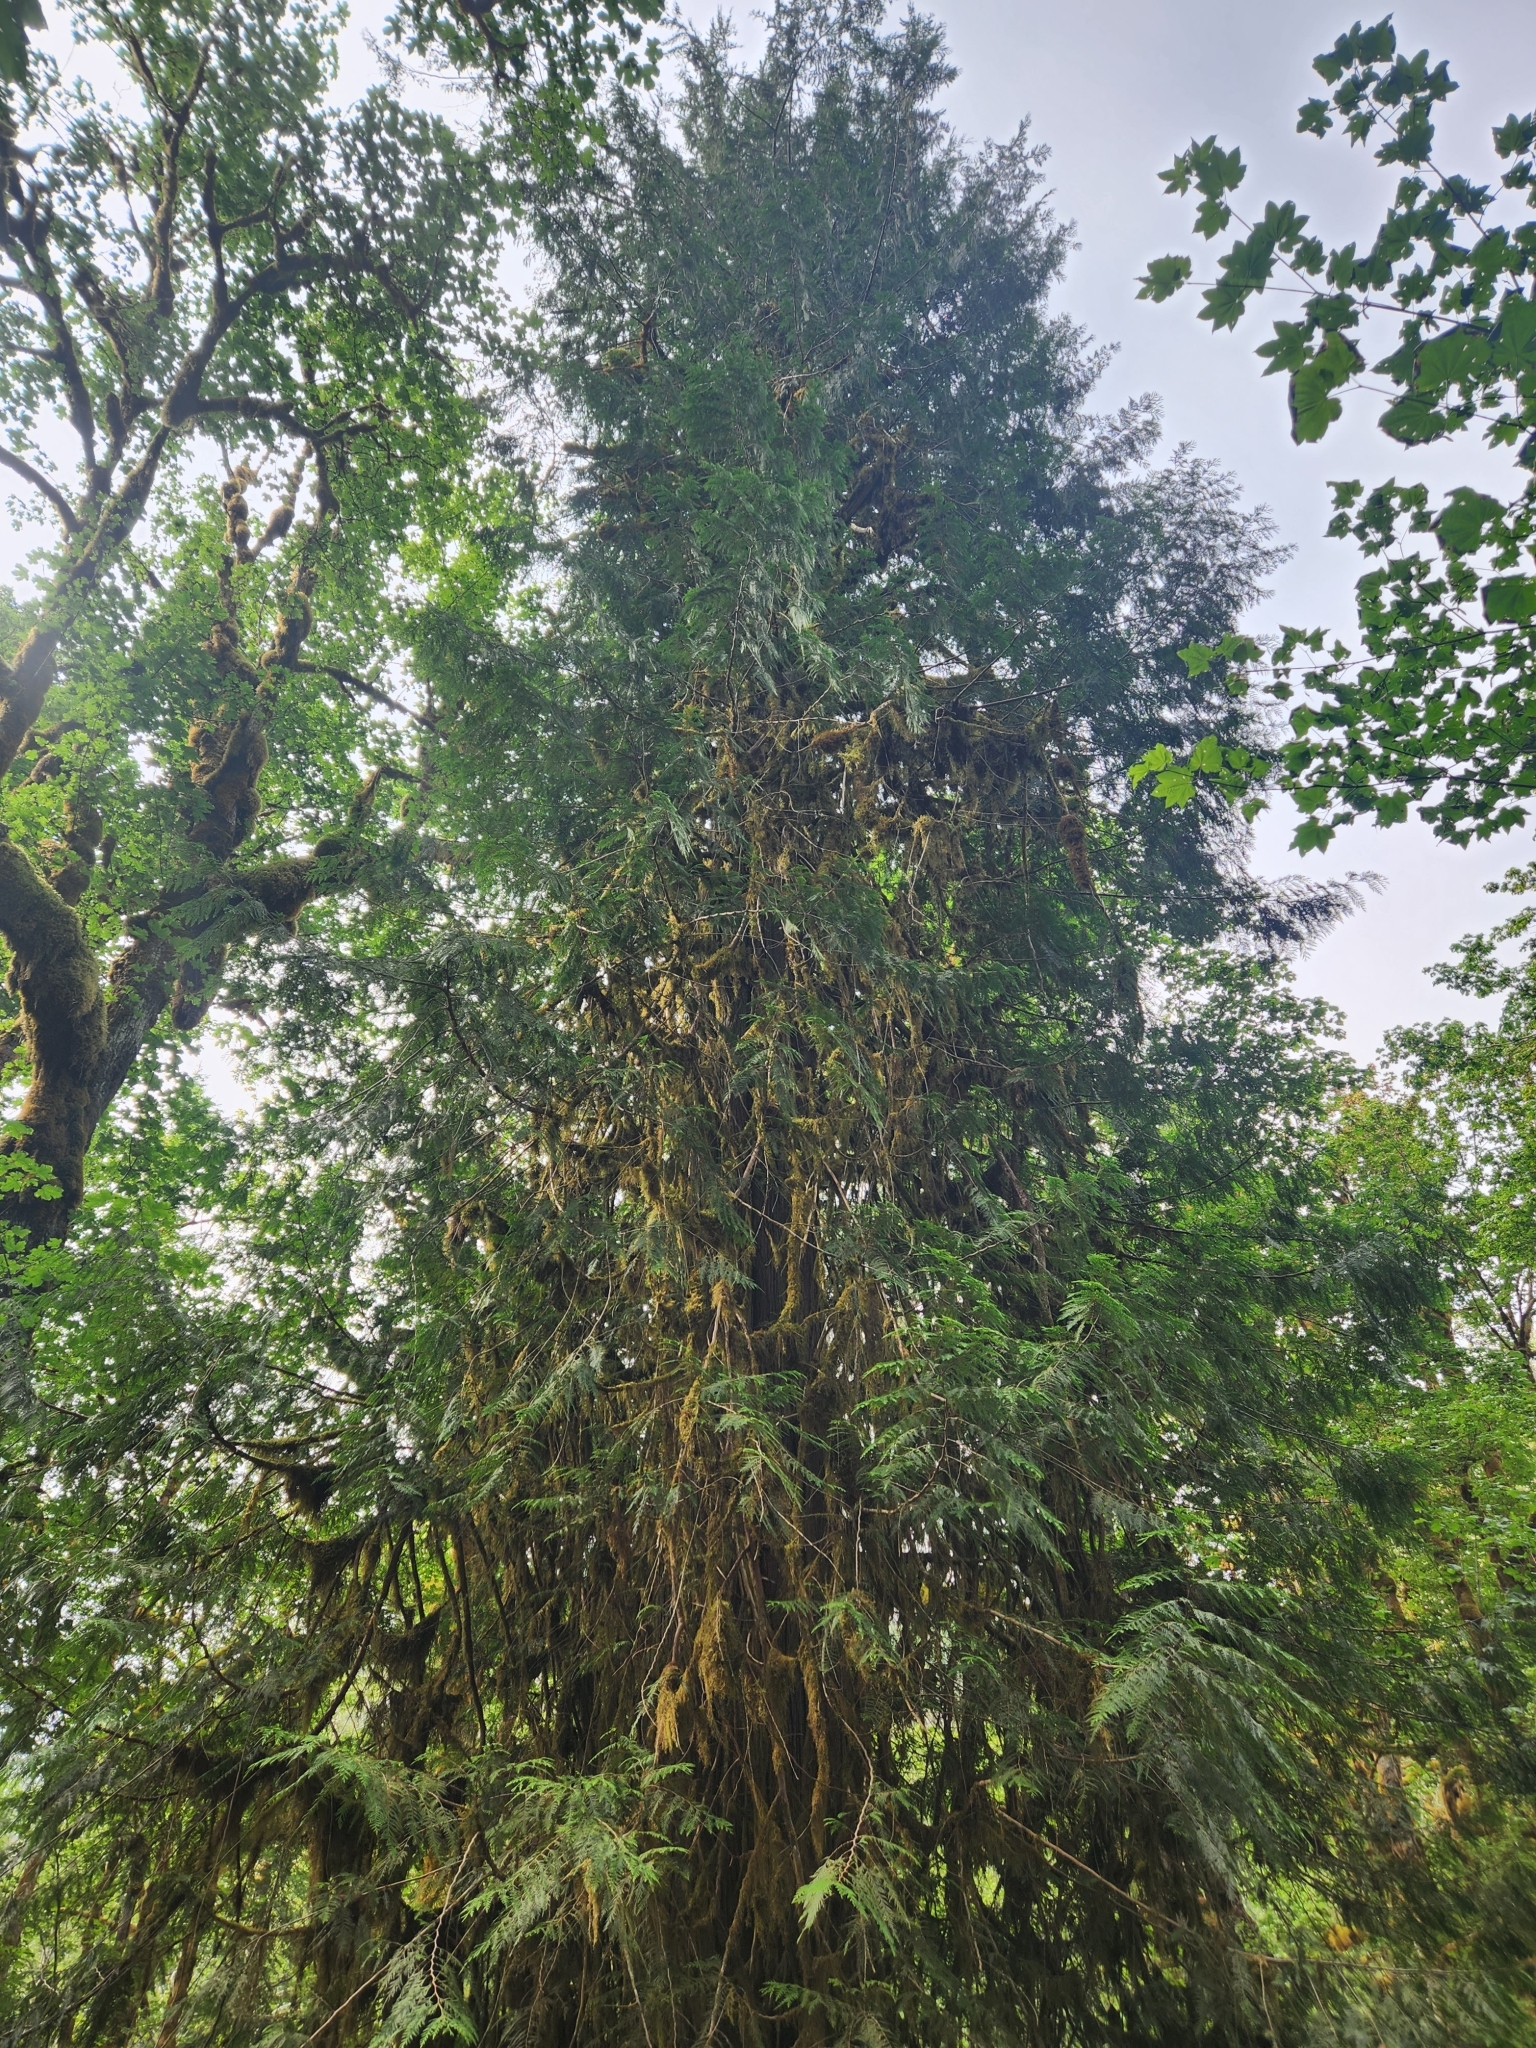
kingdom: Plantae
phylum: Tracheophyta
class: Pinopsida
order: Pinales
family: Cupressaceae
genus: Thuja
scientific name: Thuja plicata
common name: Western red-cedar
